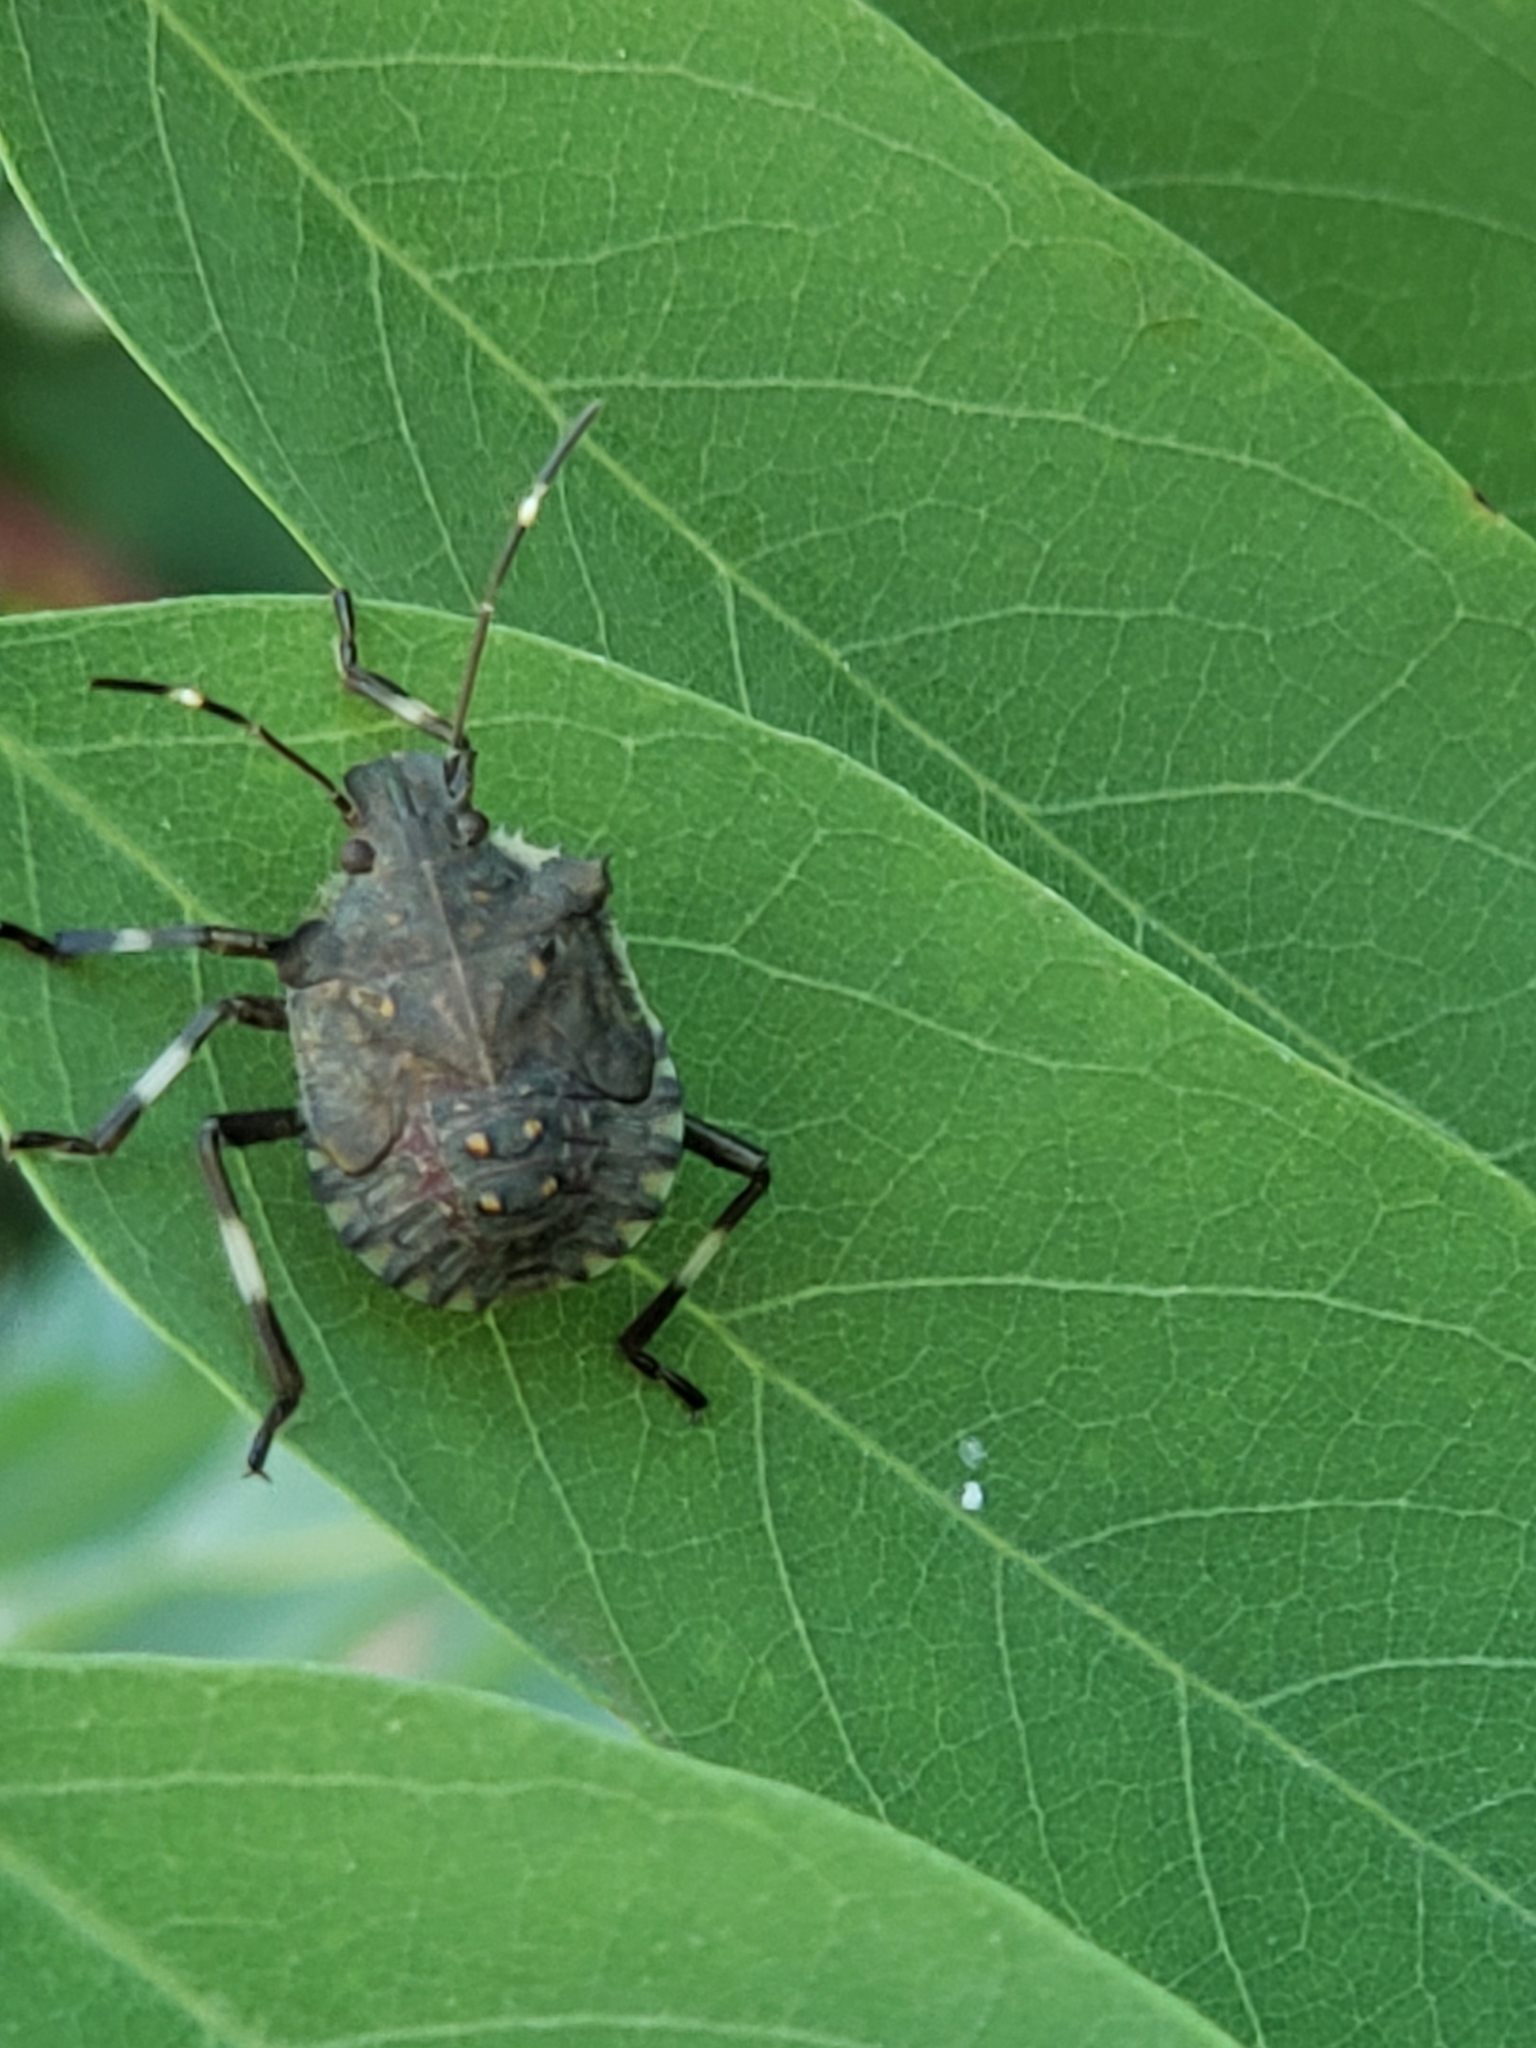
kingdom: Animalia
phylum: Arthropoda
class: Insecta
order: Hemiptera
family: Pentatomidae
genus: Halyomorpha
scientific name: Halyomorpha halys
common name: Brown marmorated stink bug
